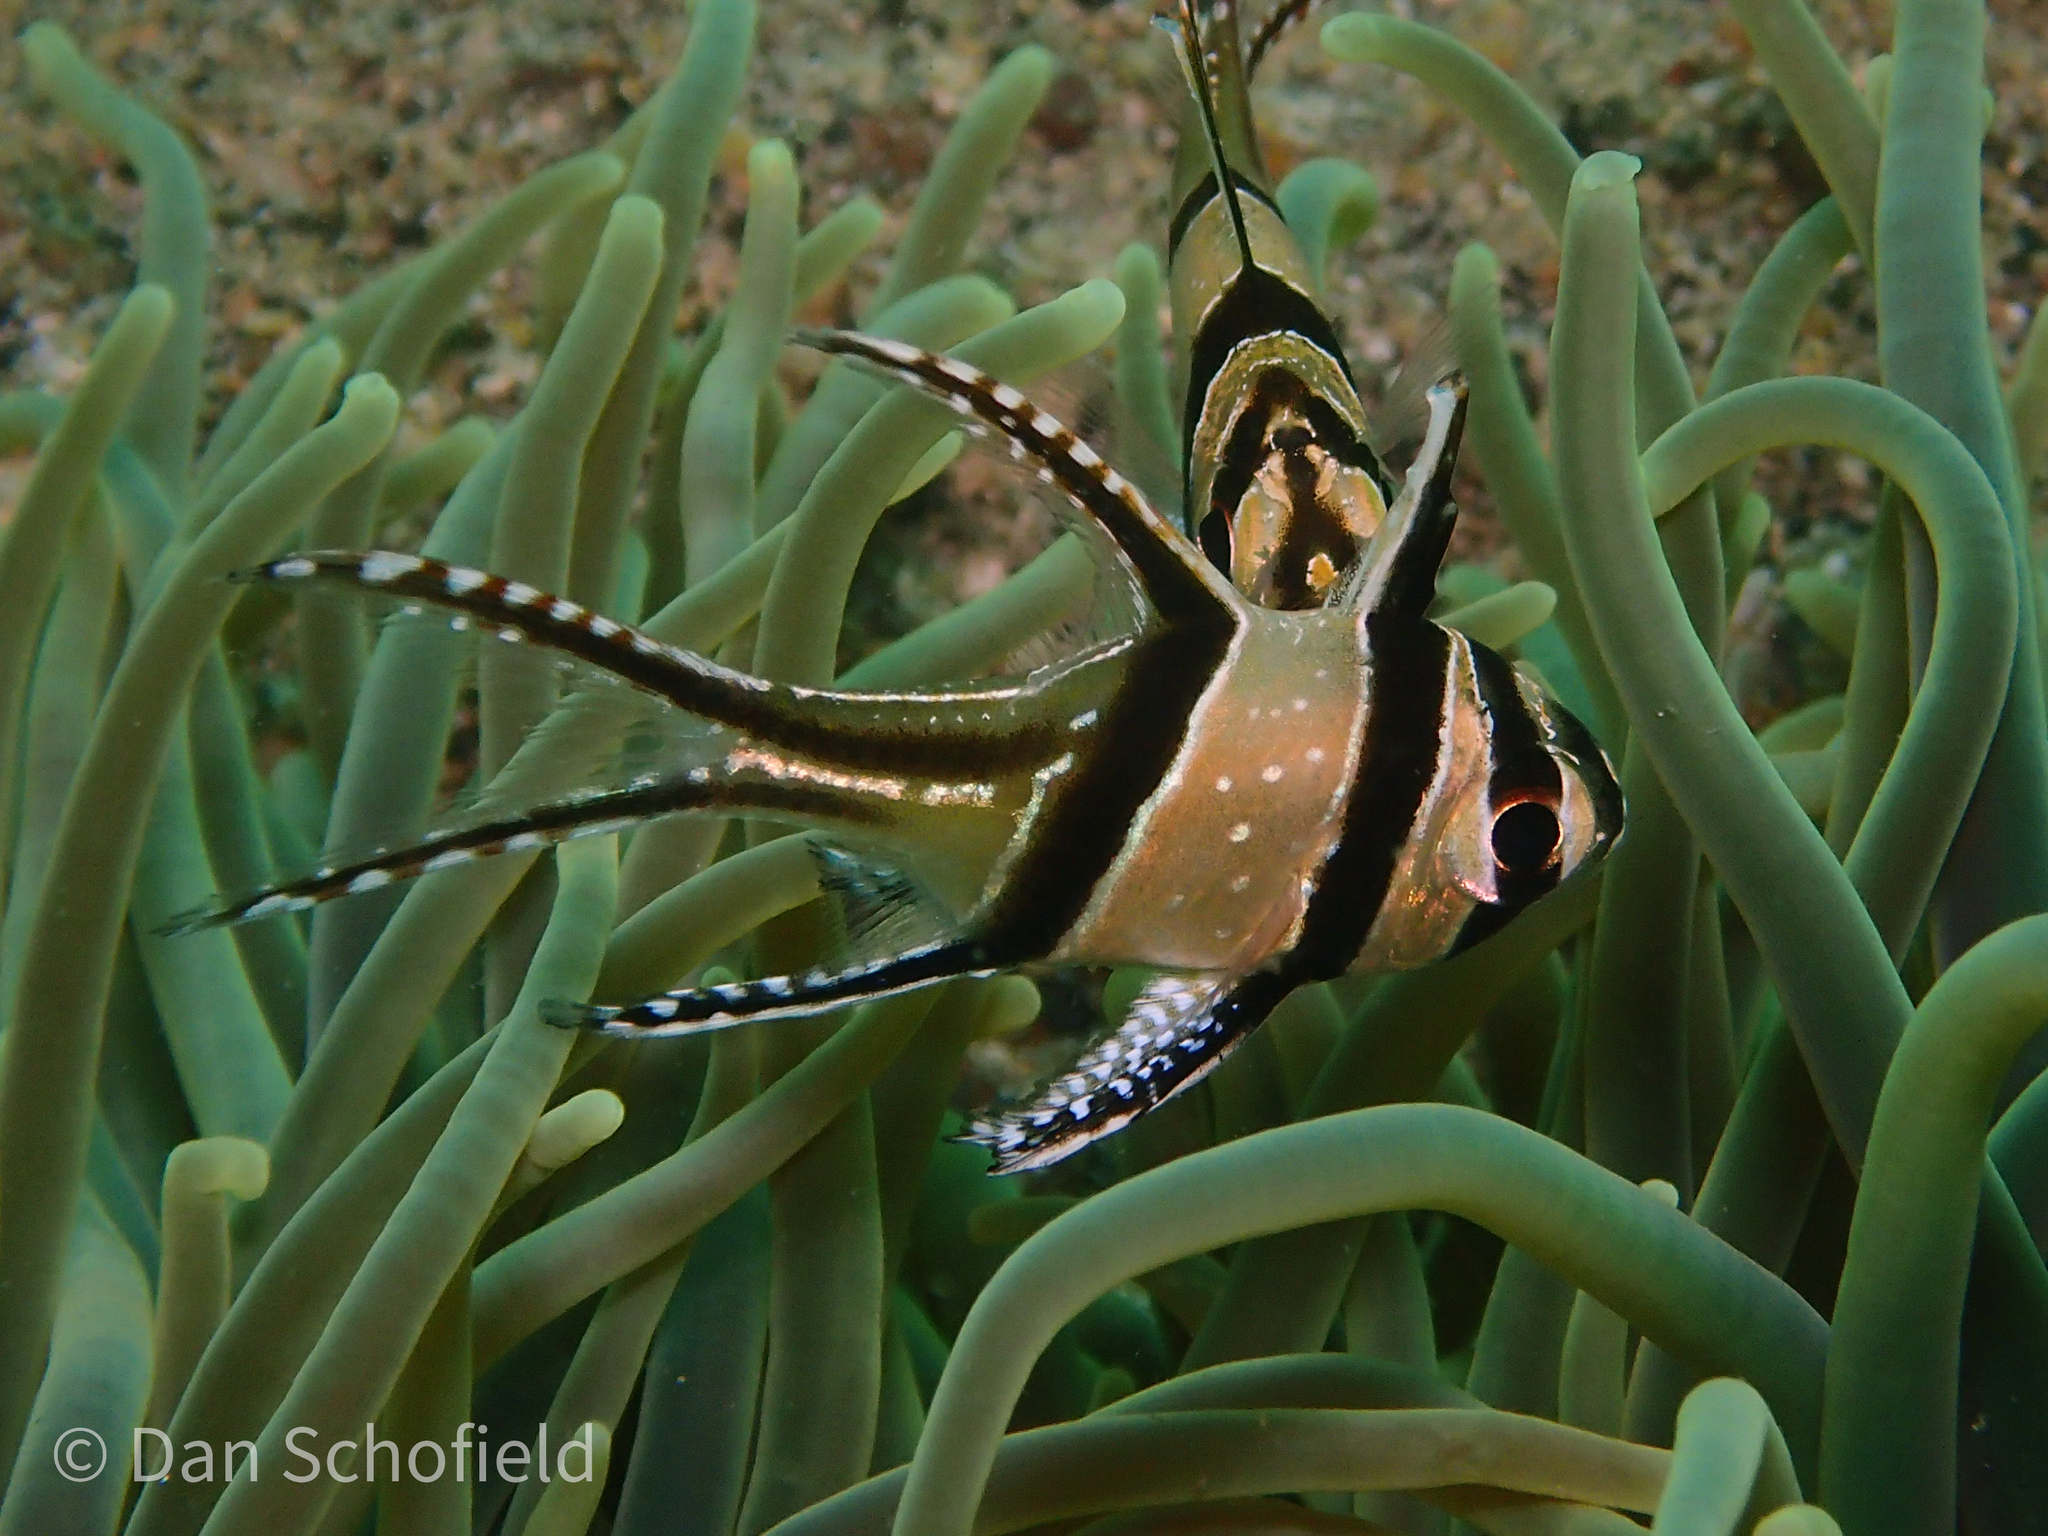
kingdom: Animalia
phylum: Chordata
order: Perciformes
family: Apogonidae
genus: Pterapogon
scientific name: Pterapogon kauderni
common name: Banggai cardinalfish
